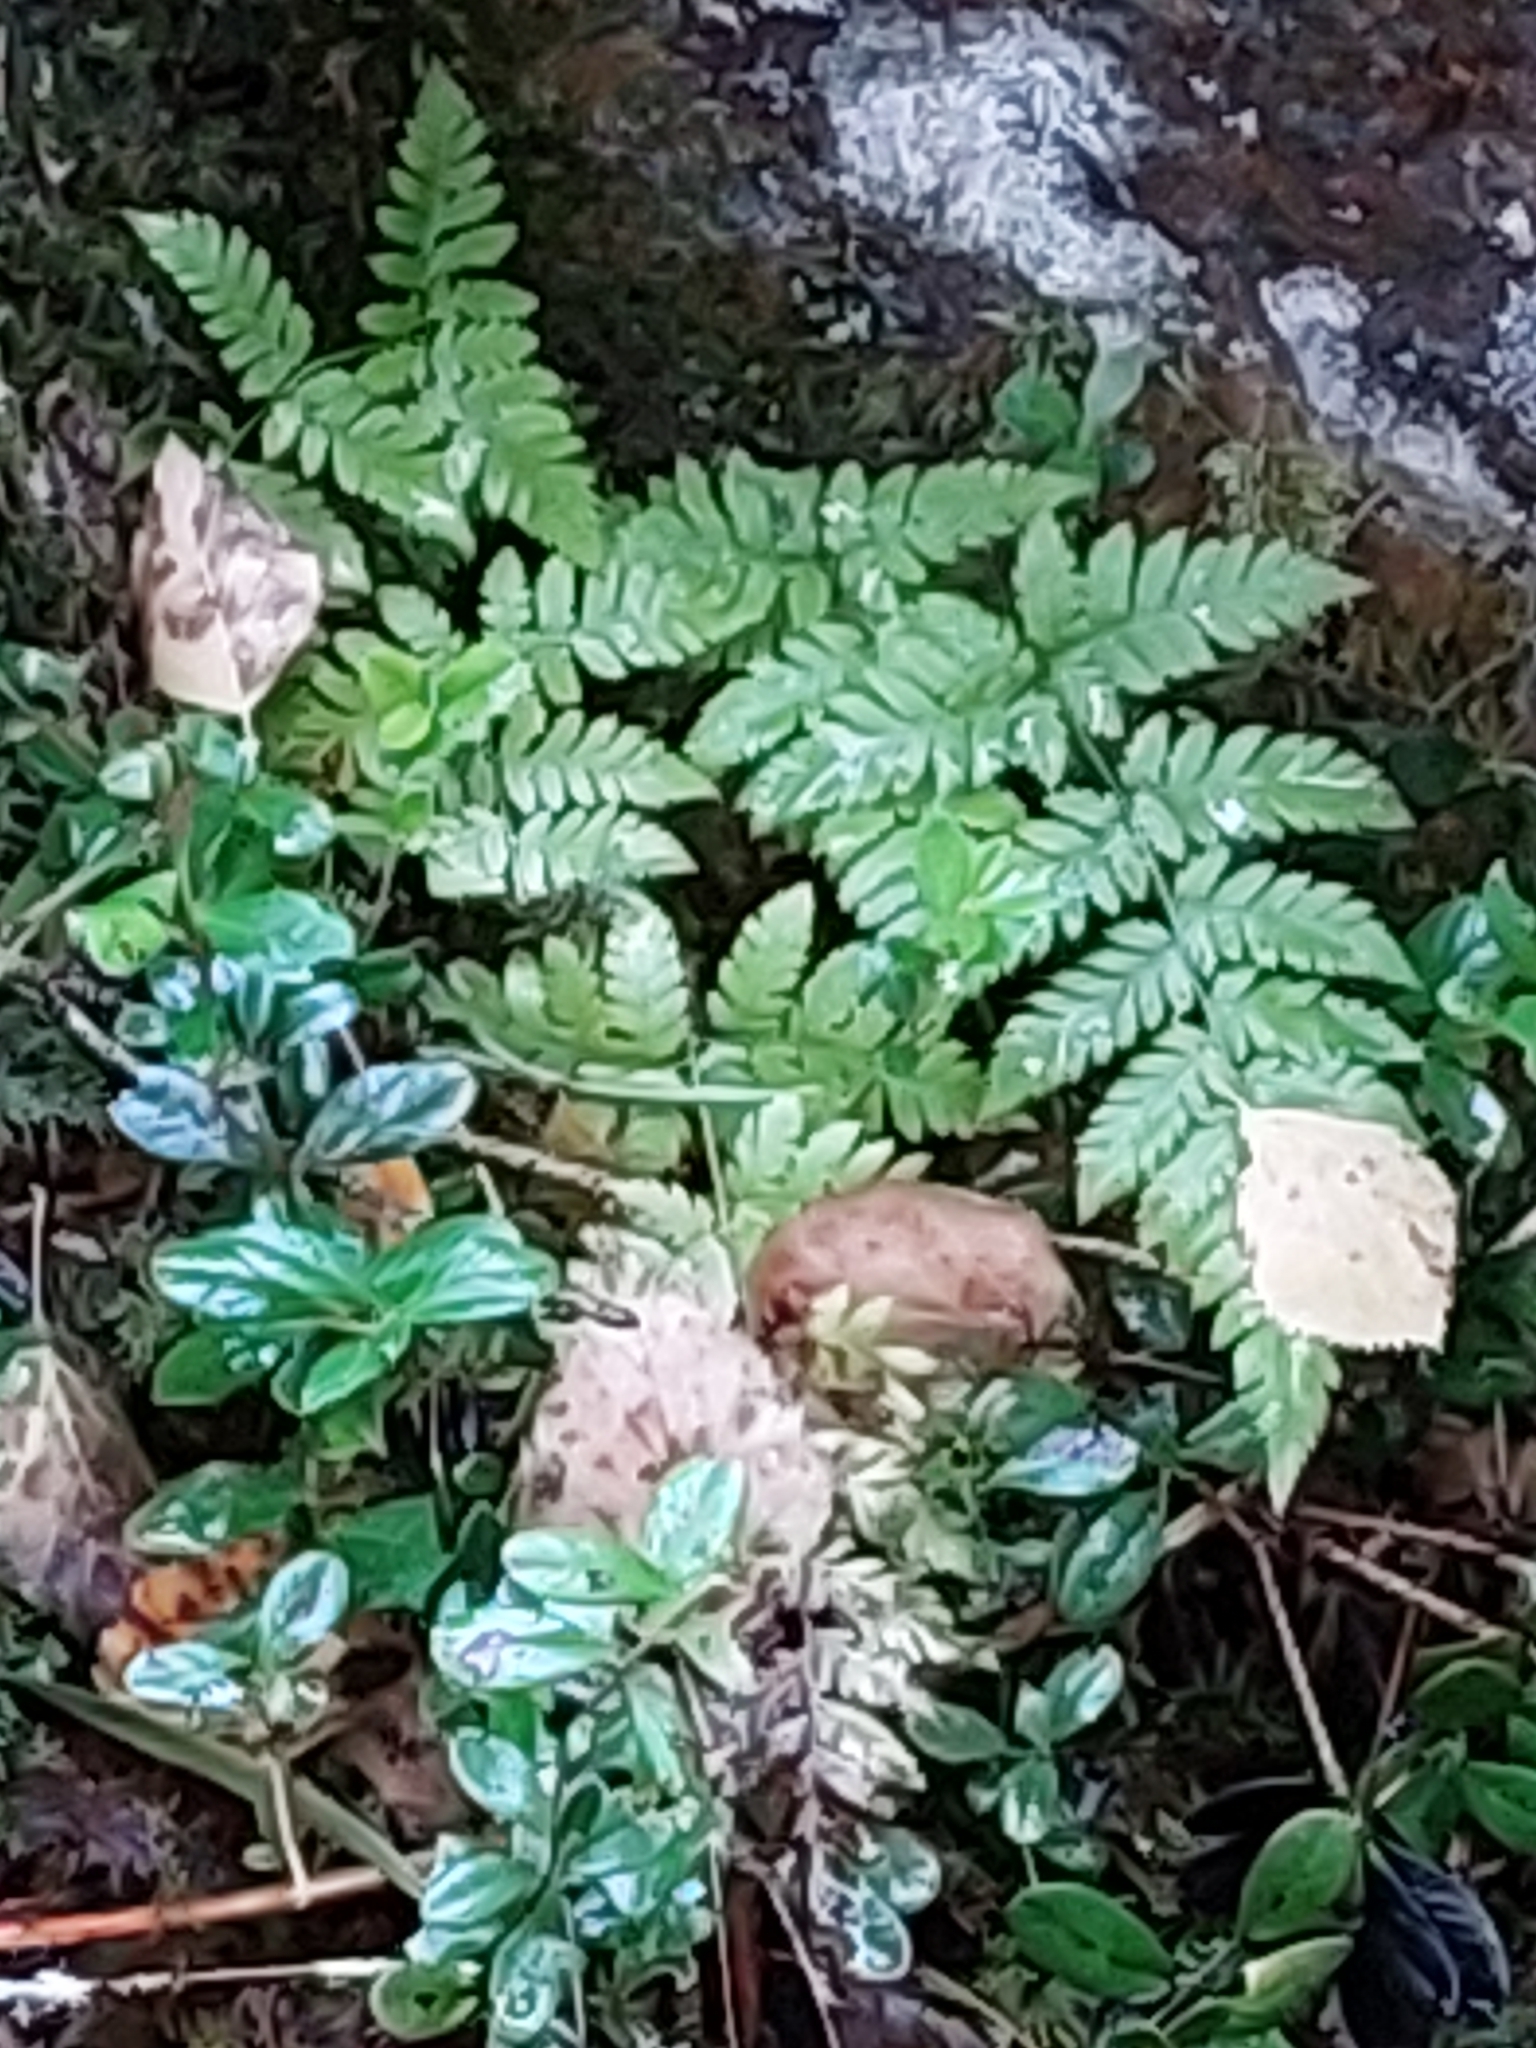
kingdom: Plantae
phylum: Tracheophyta
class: Polypodiopsida
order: Polypodiales
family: Dryopteridaceae
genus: Dryopteris
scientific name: Dryopteris carthusiana
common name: Narrow buckler-fern
